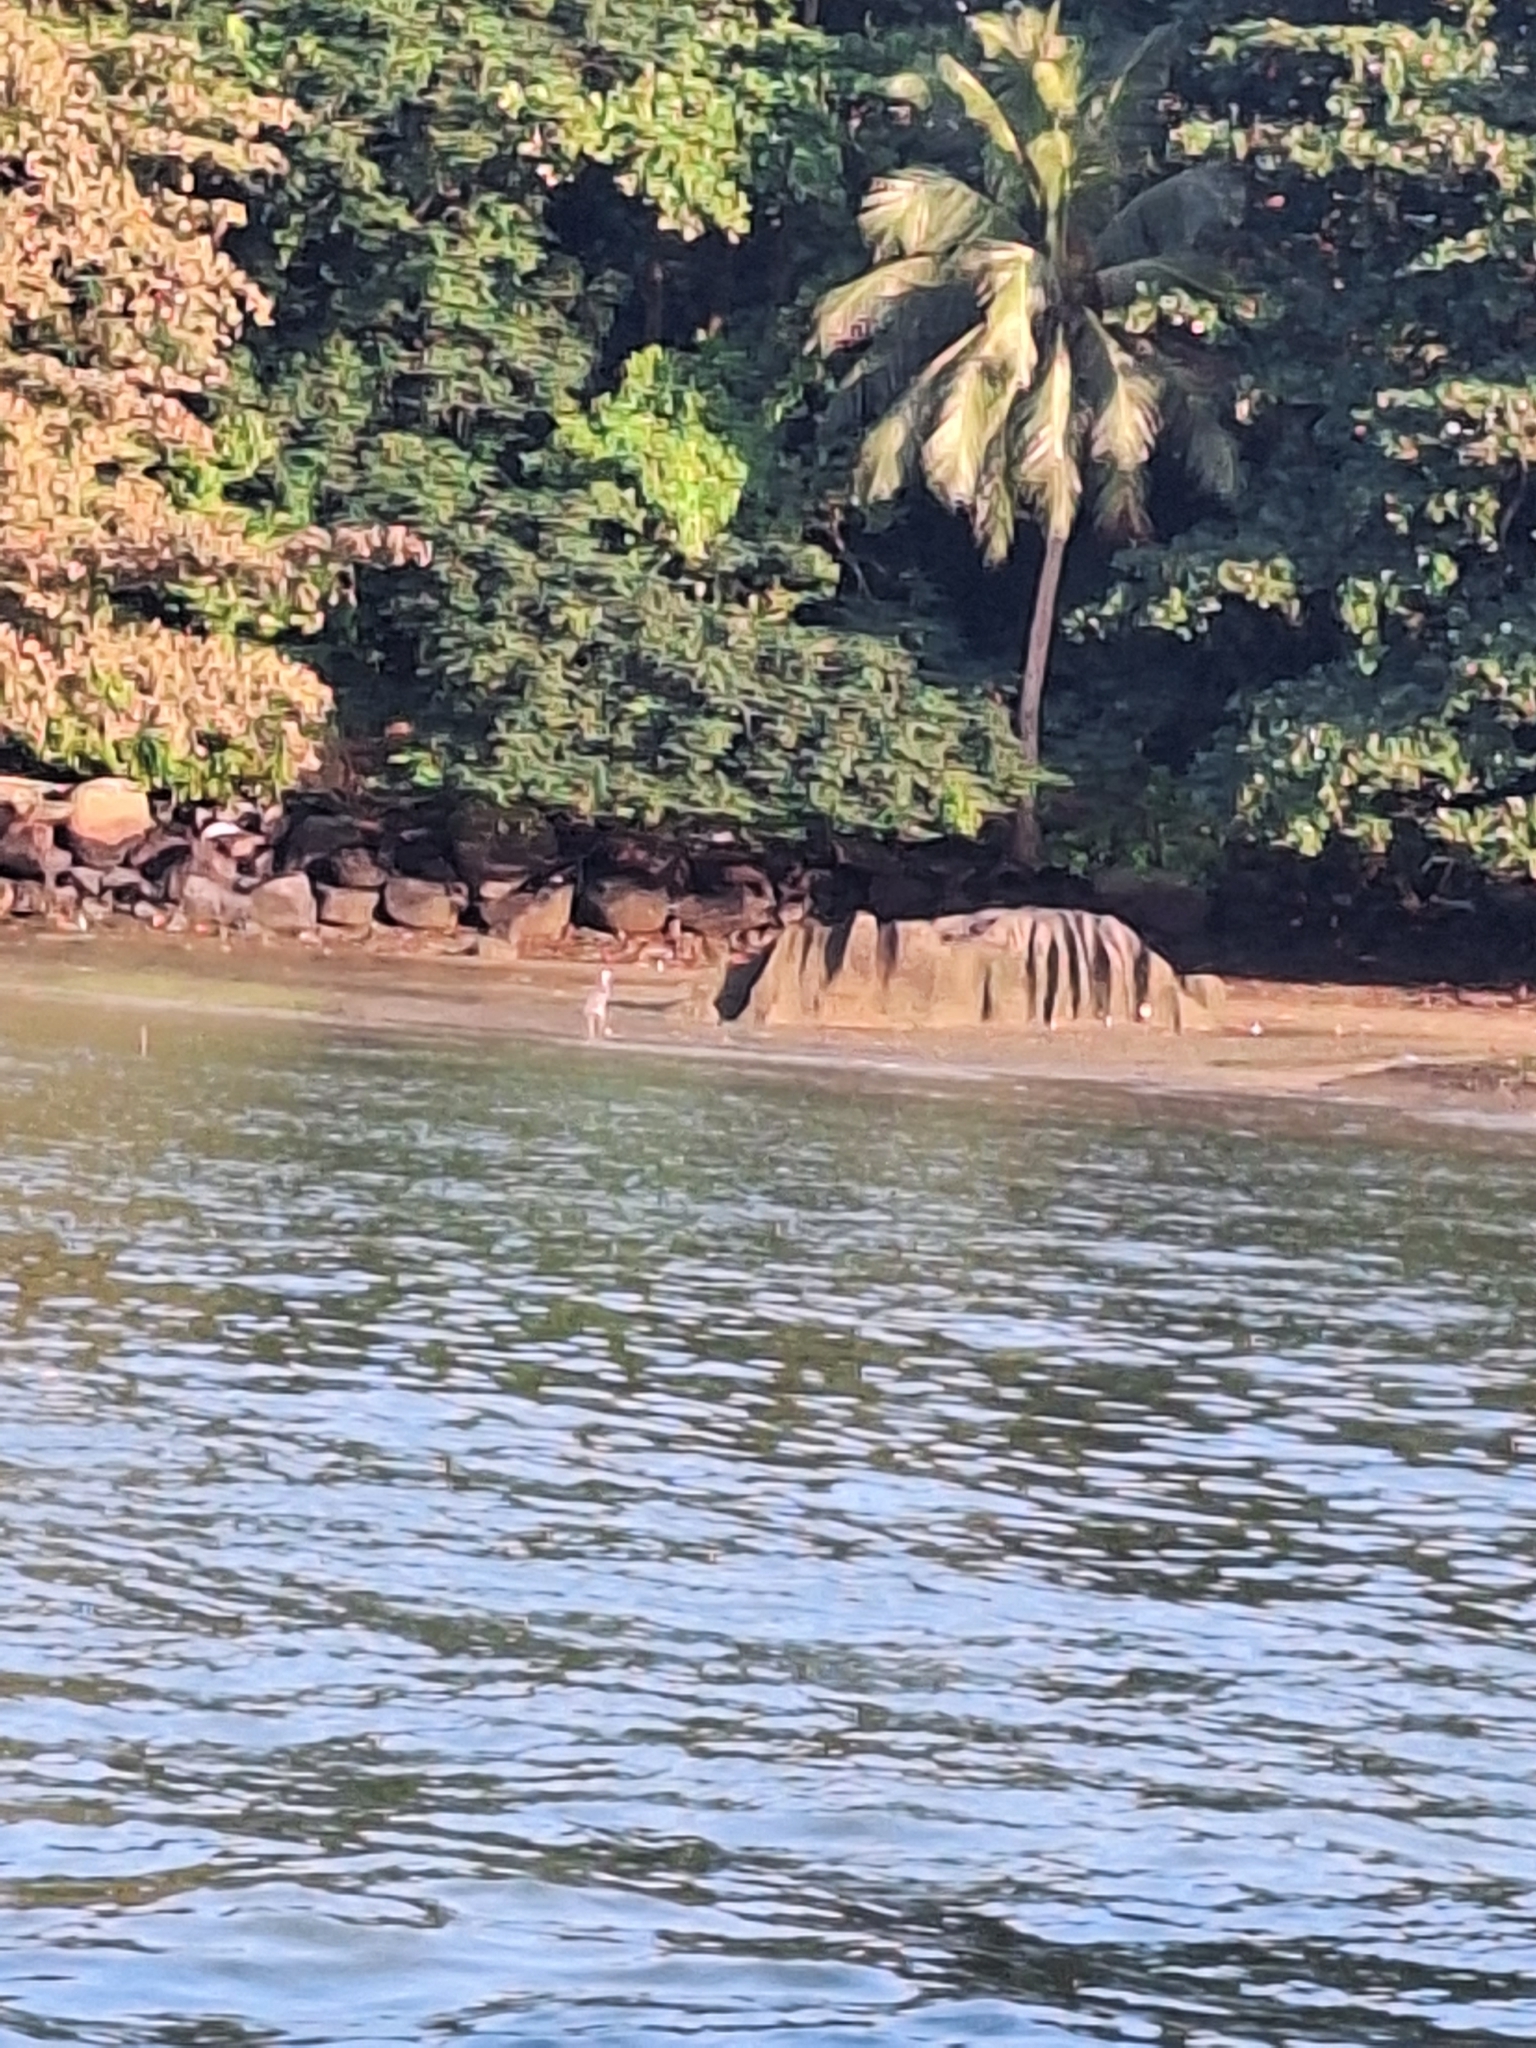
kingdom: Animalia
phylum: Chordata
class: Aves
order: Pelecaniformes
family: Ardeidae
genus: Ardea
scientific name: Ardea cinerea
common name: Grey heron
